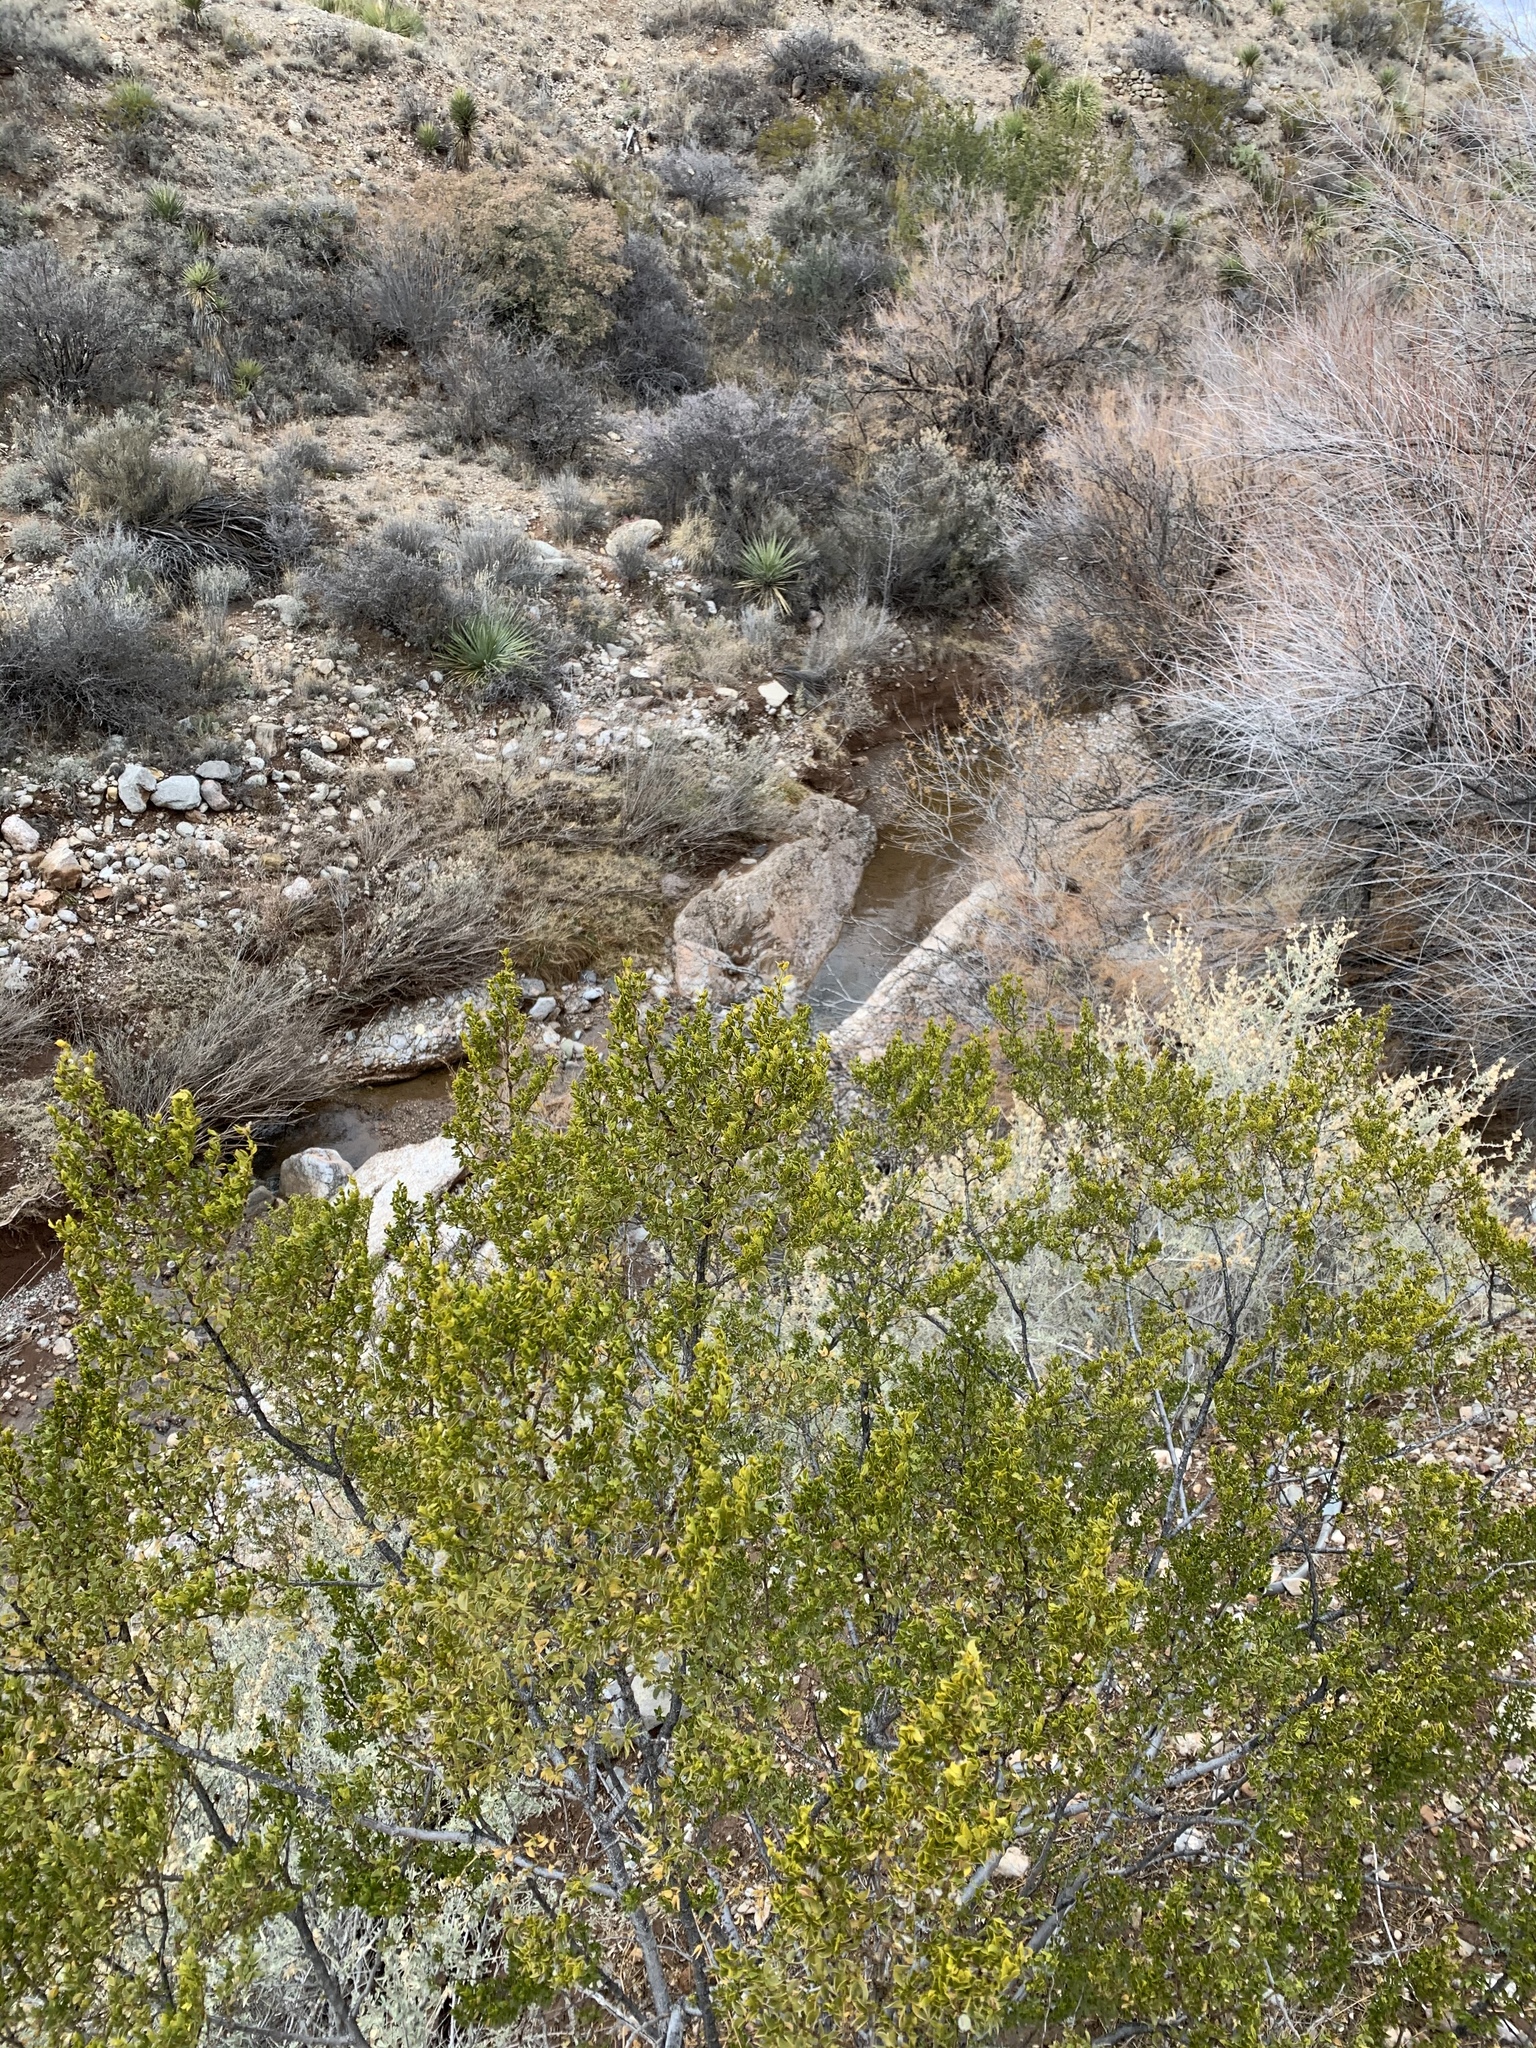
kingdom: Plantae
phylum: Tracheophyta
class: Magnoliopsida
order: Zygophyllales
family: Zygophyllaceae
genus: Larrea
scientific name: Larrea tridentata
